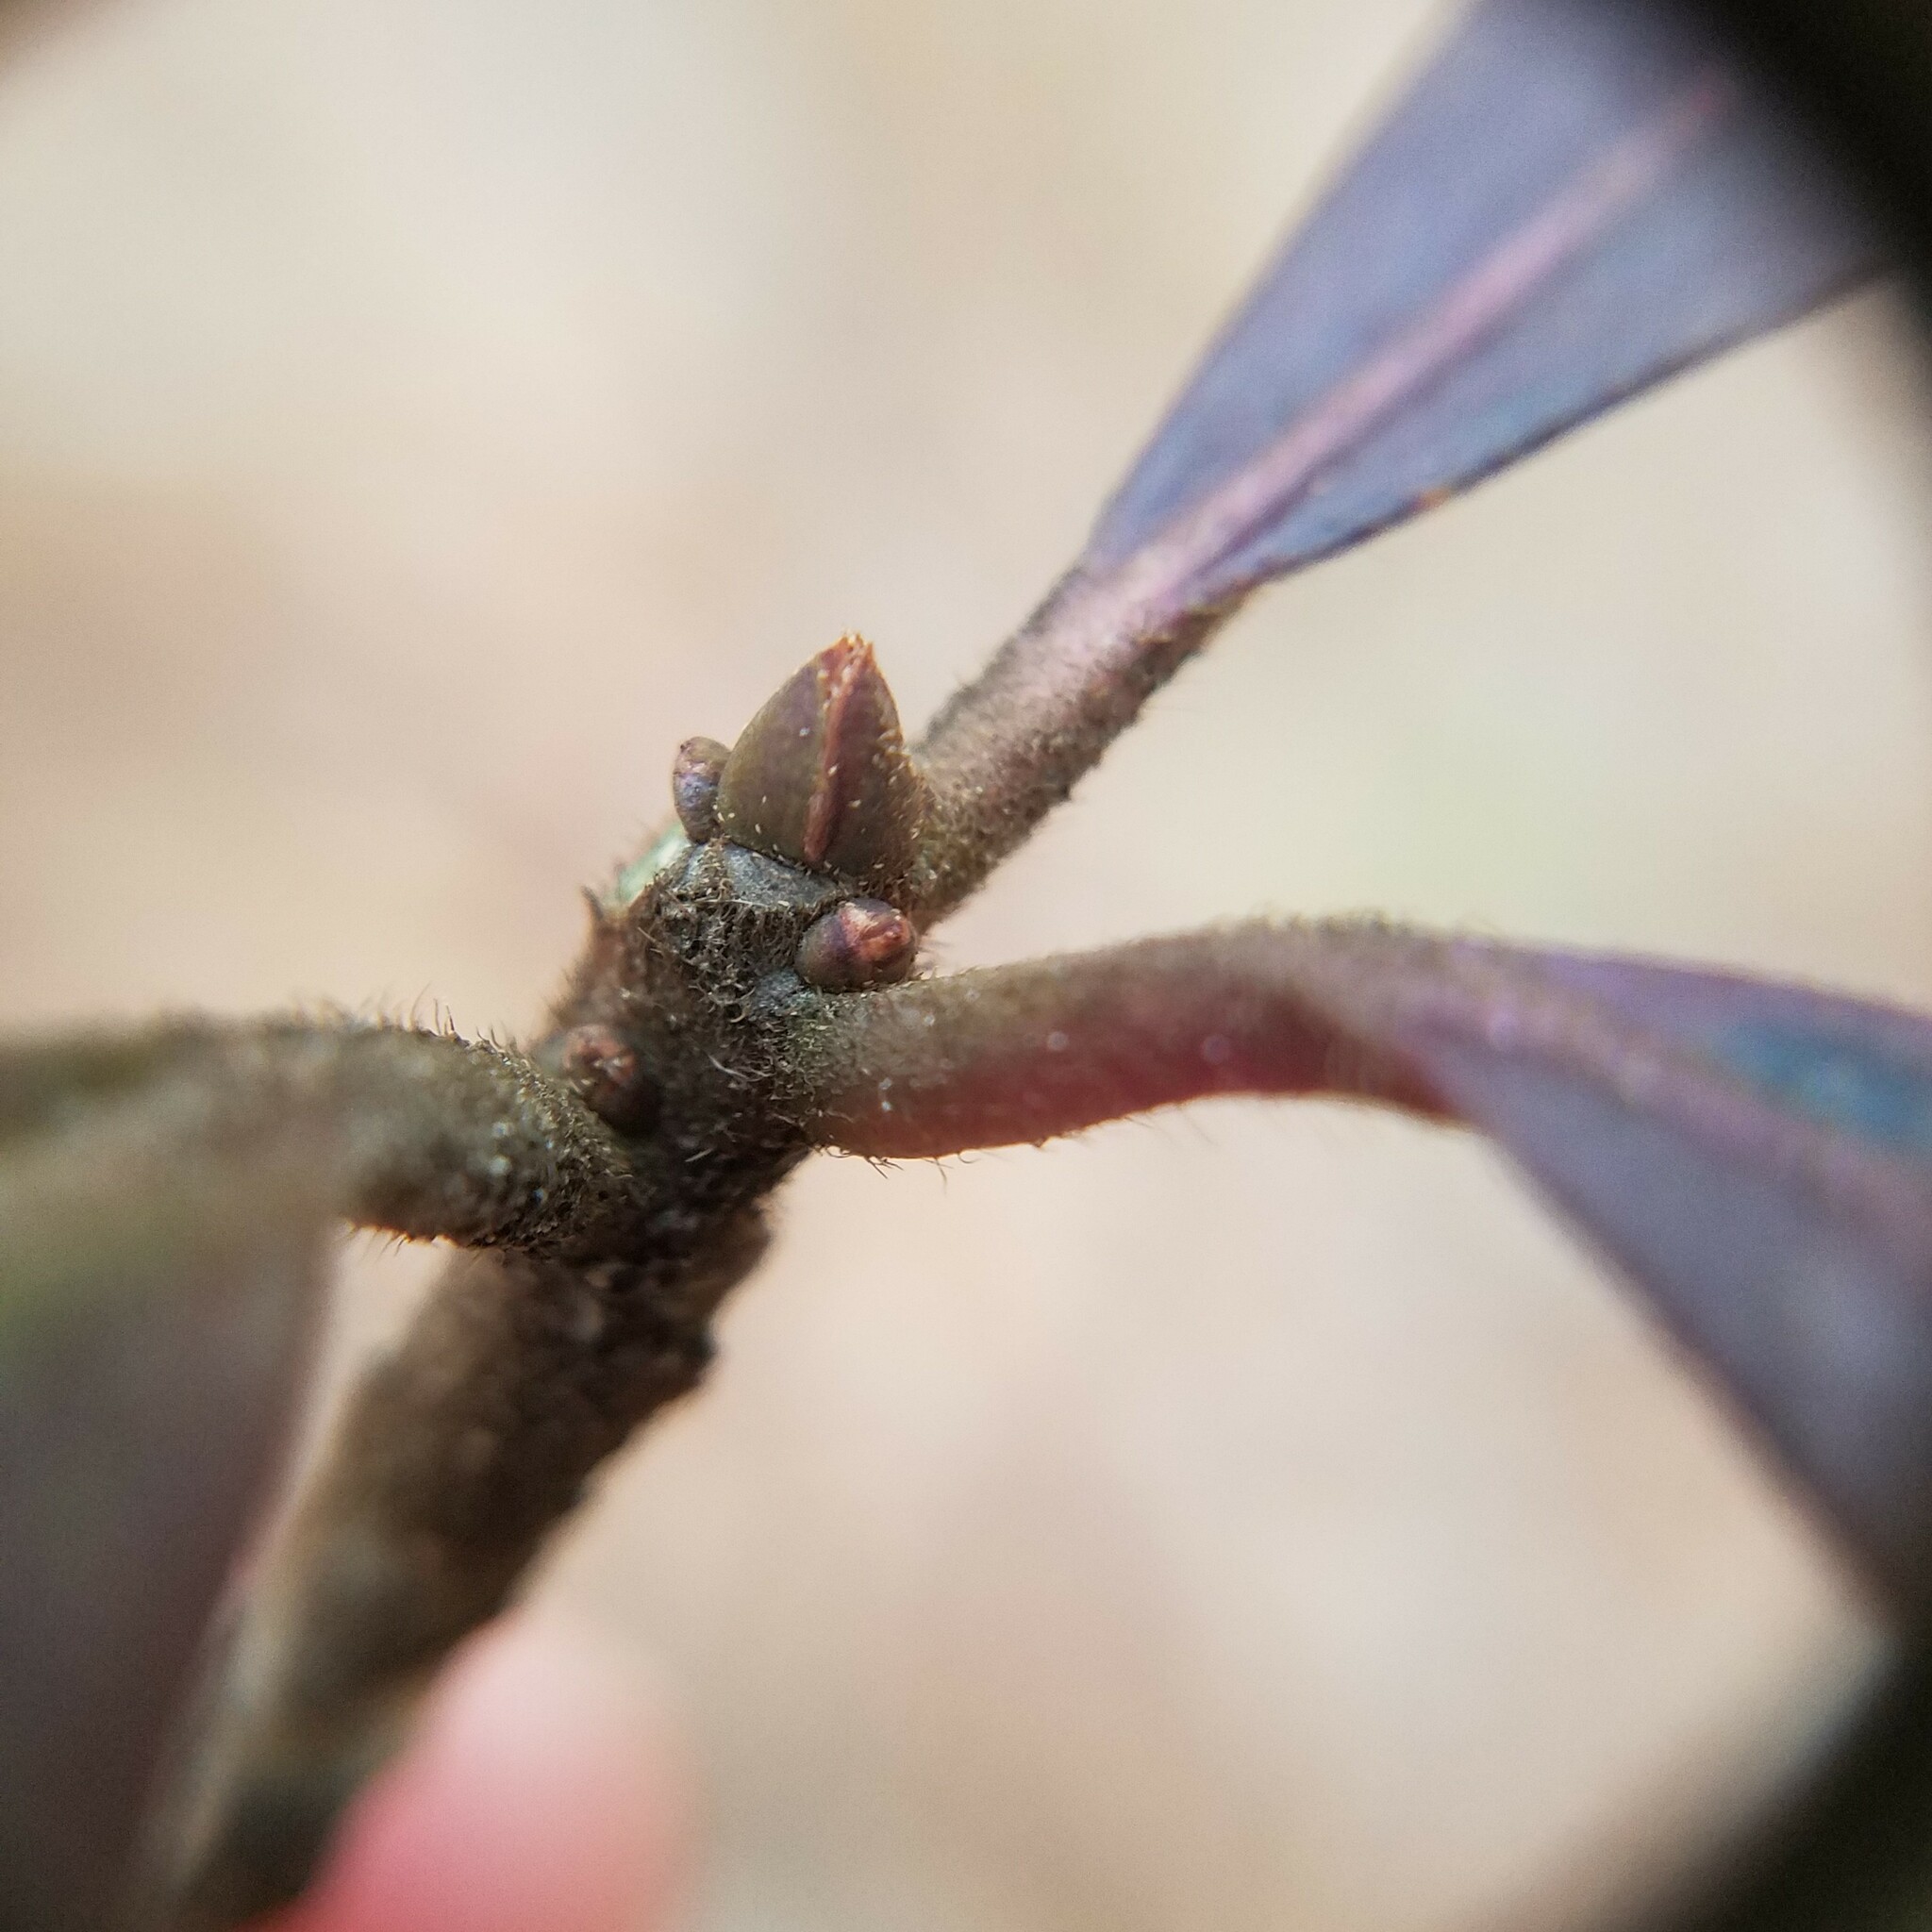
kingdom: Plantae
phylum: Tracheophyta
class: Magnoliopsida
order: Ericales
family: Symplocaceae
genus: Symplocos
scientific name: Symplocos tinctoria
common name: Horse-sugar
